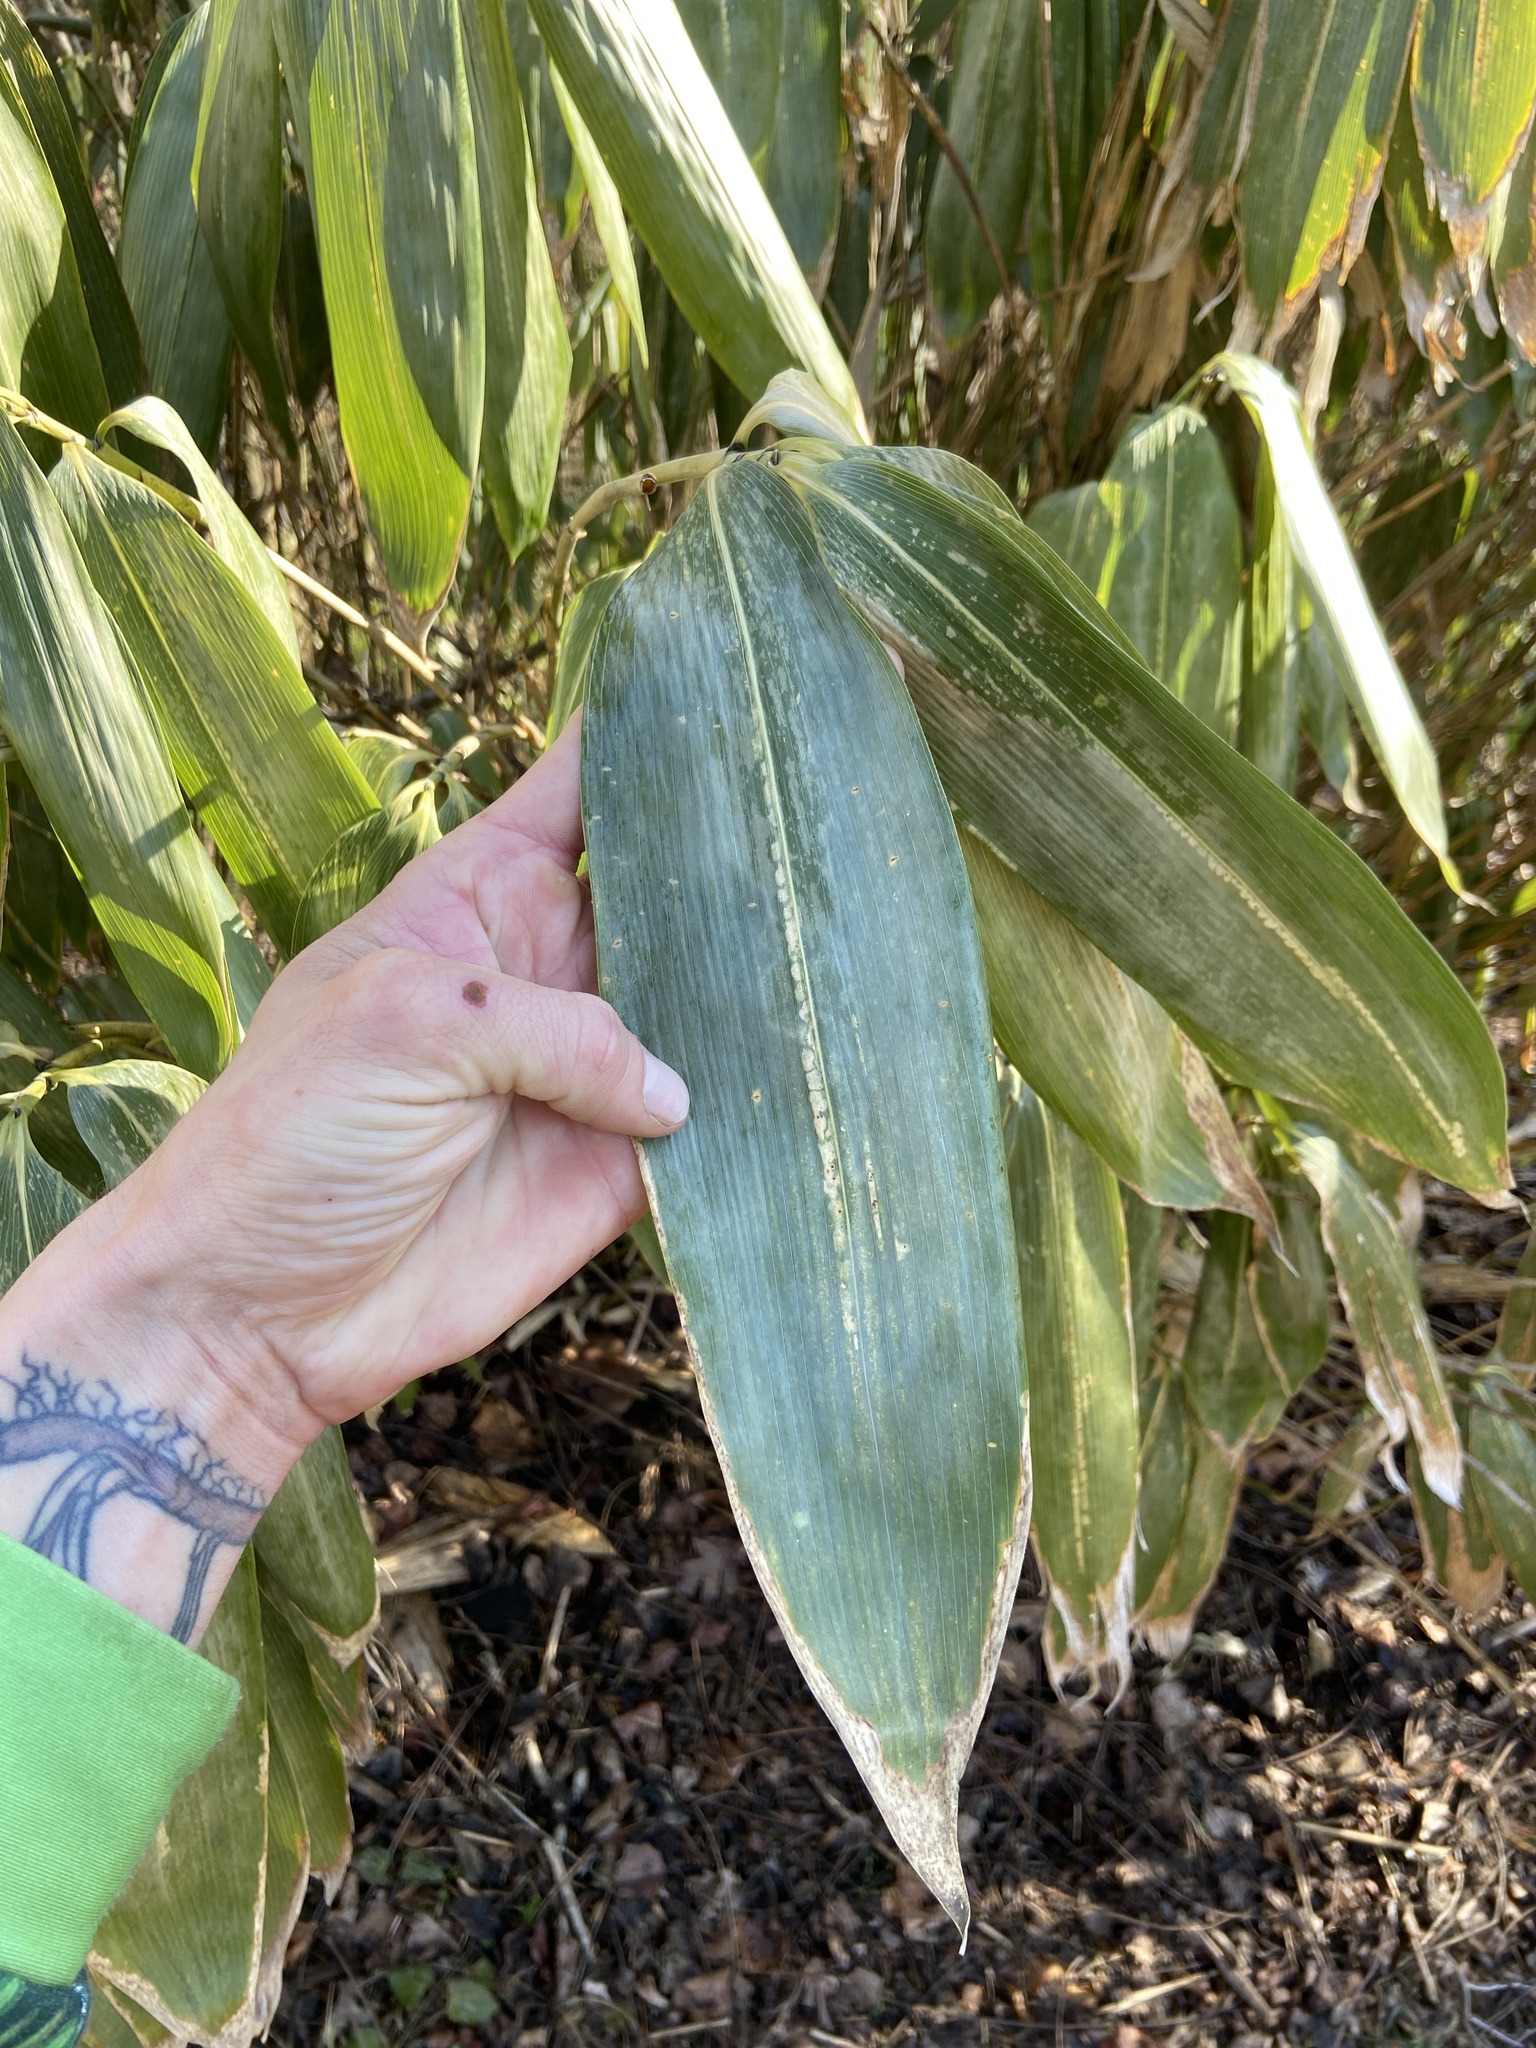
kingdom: Plantae
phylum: Tracheophyta
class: Liliopsida
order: Poales
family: Poaceae
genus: Sasa
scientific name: Sasa palmata
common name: Broad-leaved bamboo
